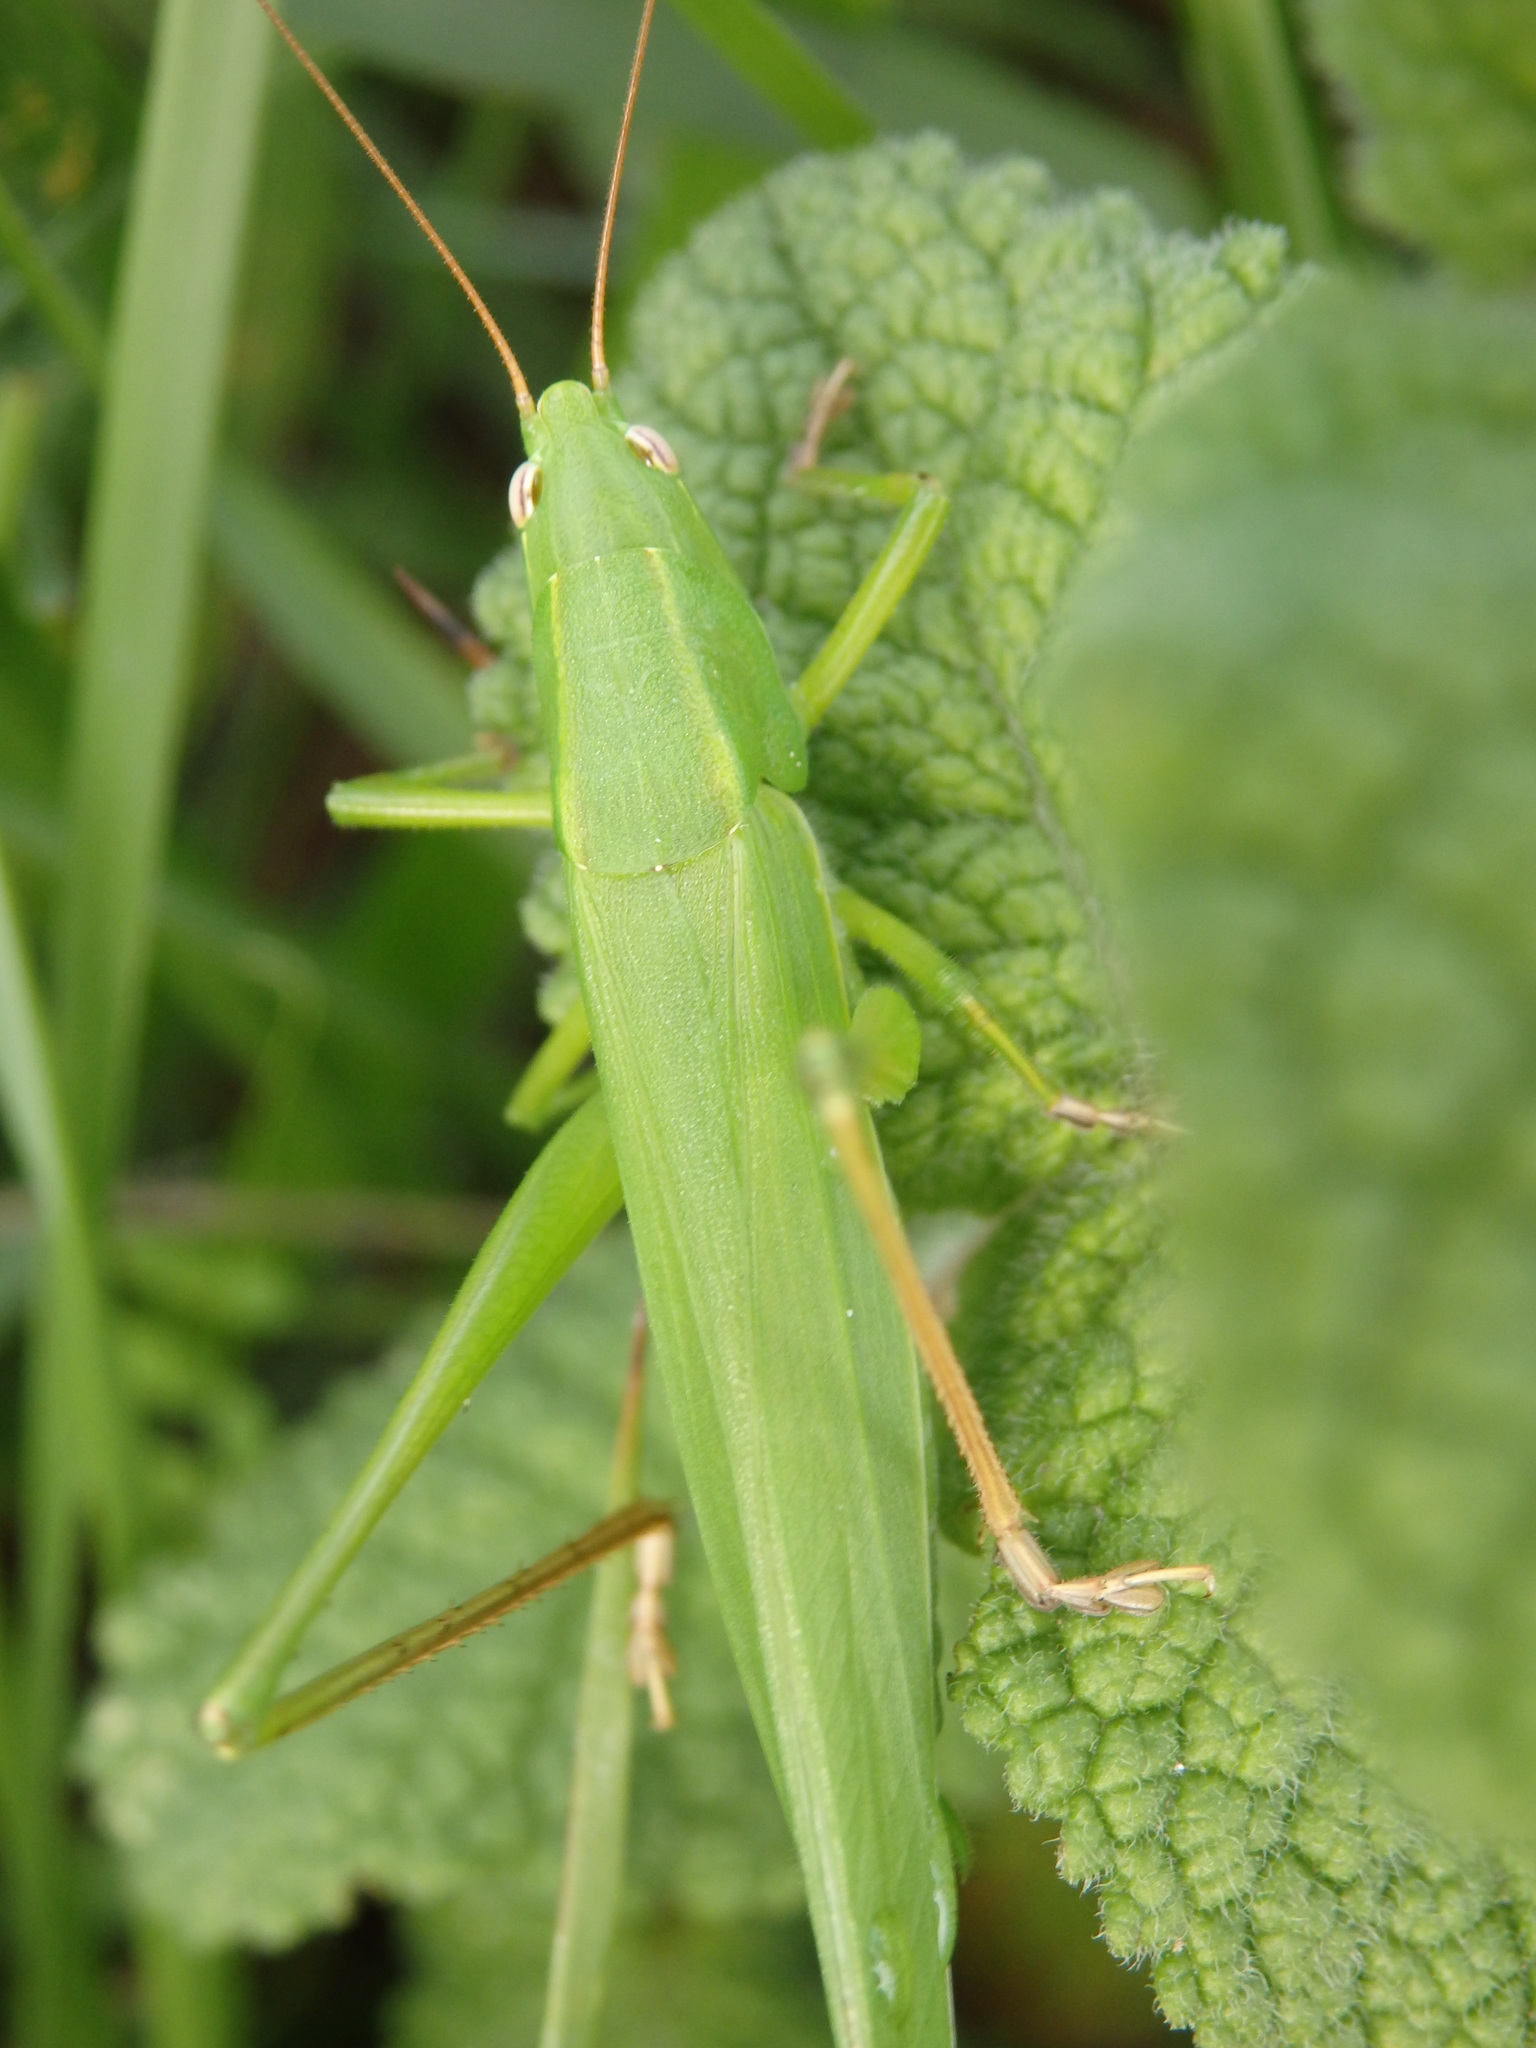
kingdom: Animalia
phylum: Arthropoda
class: Insecta
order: Orthoptera
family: Tettigoniidae
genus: Ruspolia
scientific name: Ruspolia nitidula
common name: Large conehead
